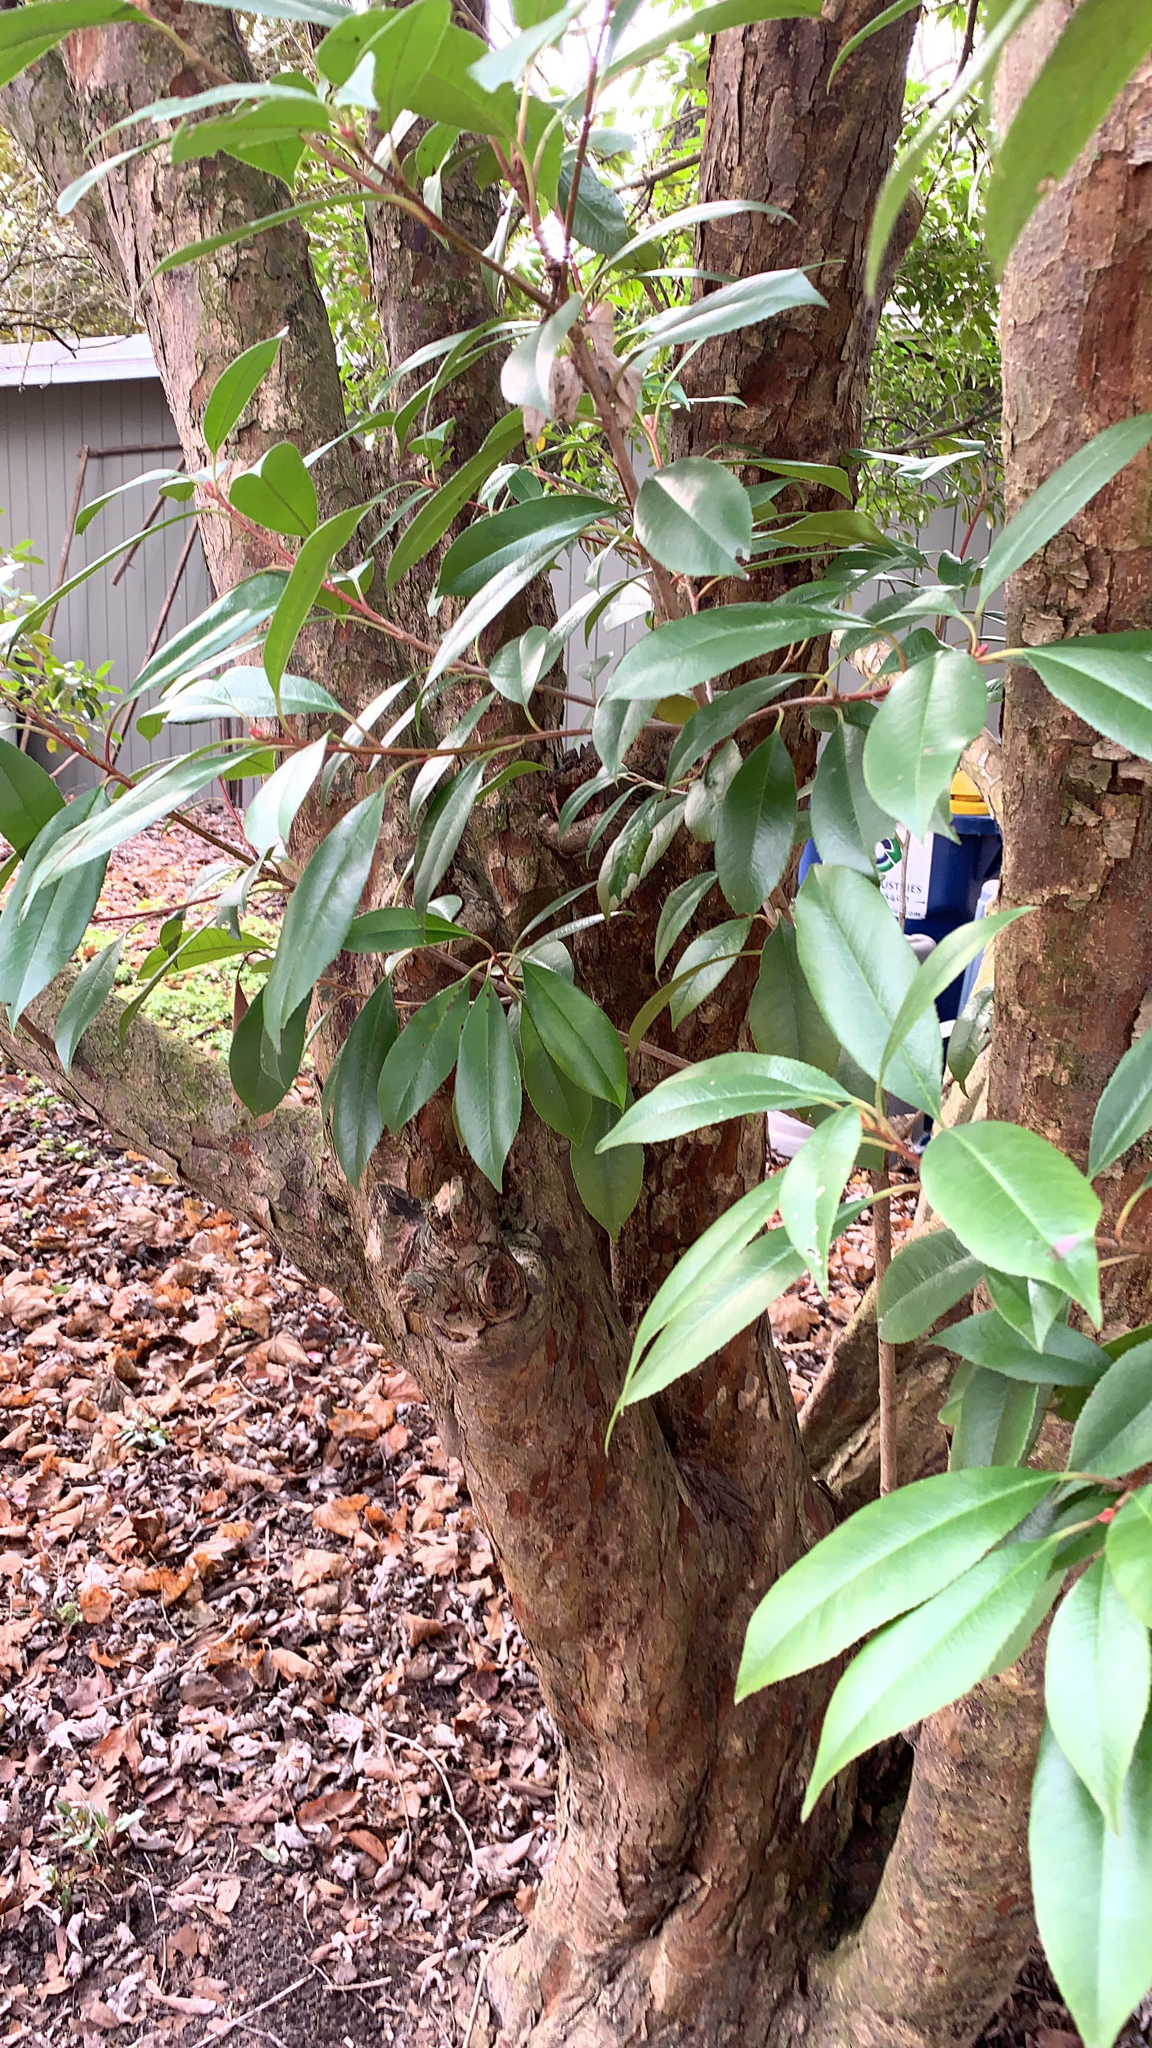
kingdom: Plantae
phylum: Tracheophyta
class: Magnoliopsida
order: Rosales
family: Rosaceae
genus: Photinia
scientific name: Photinia serratifolia
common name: Taiwanese photinia
